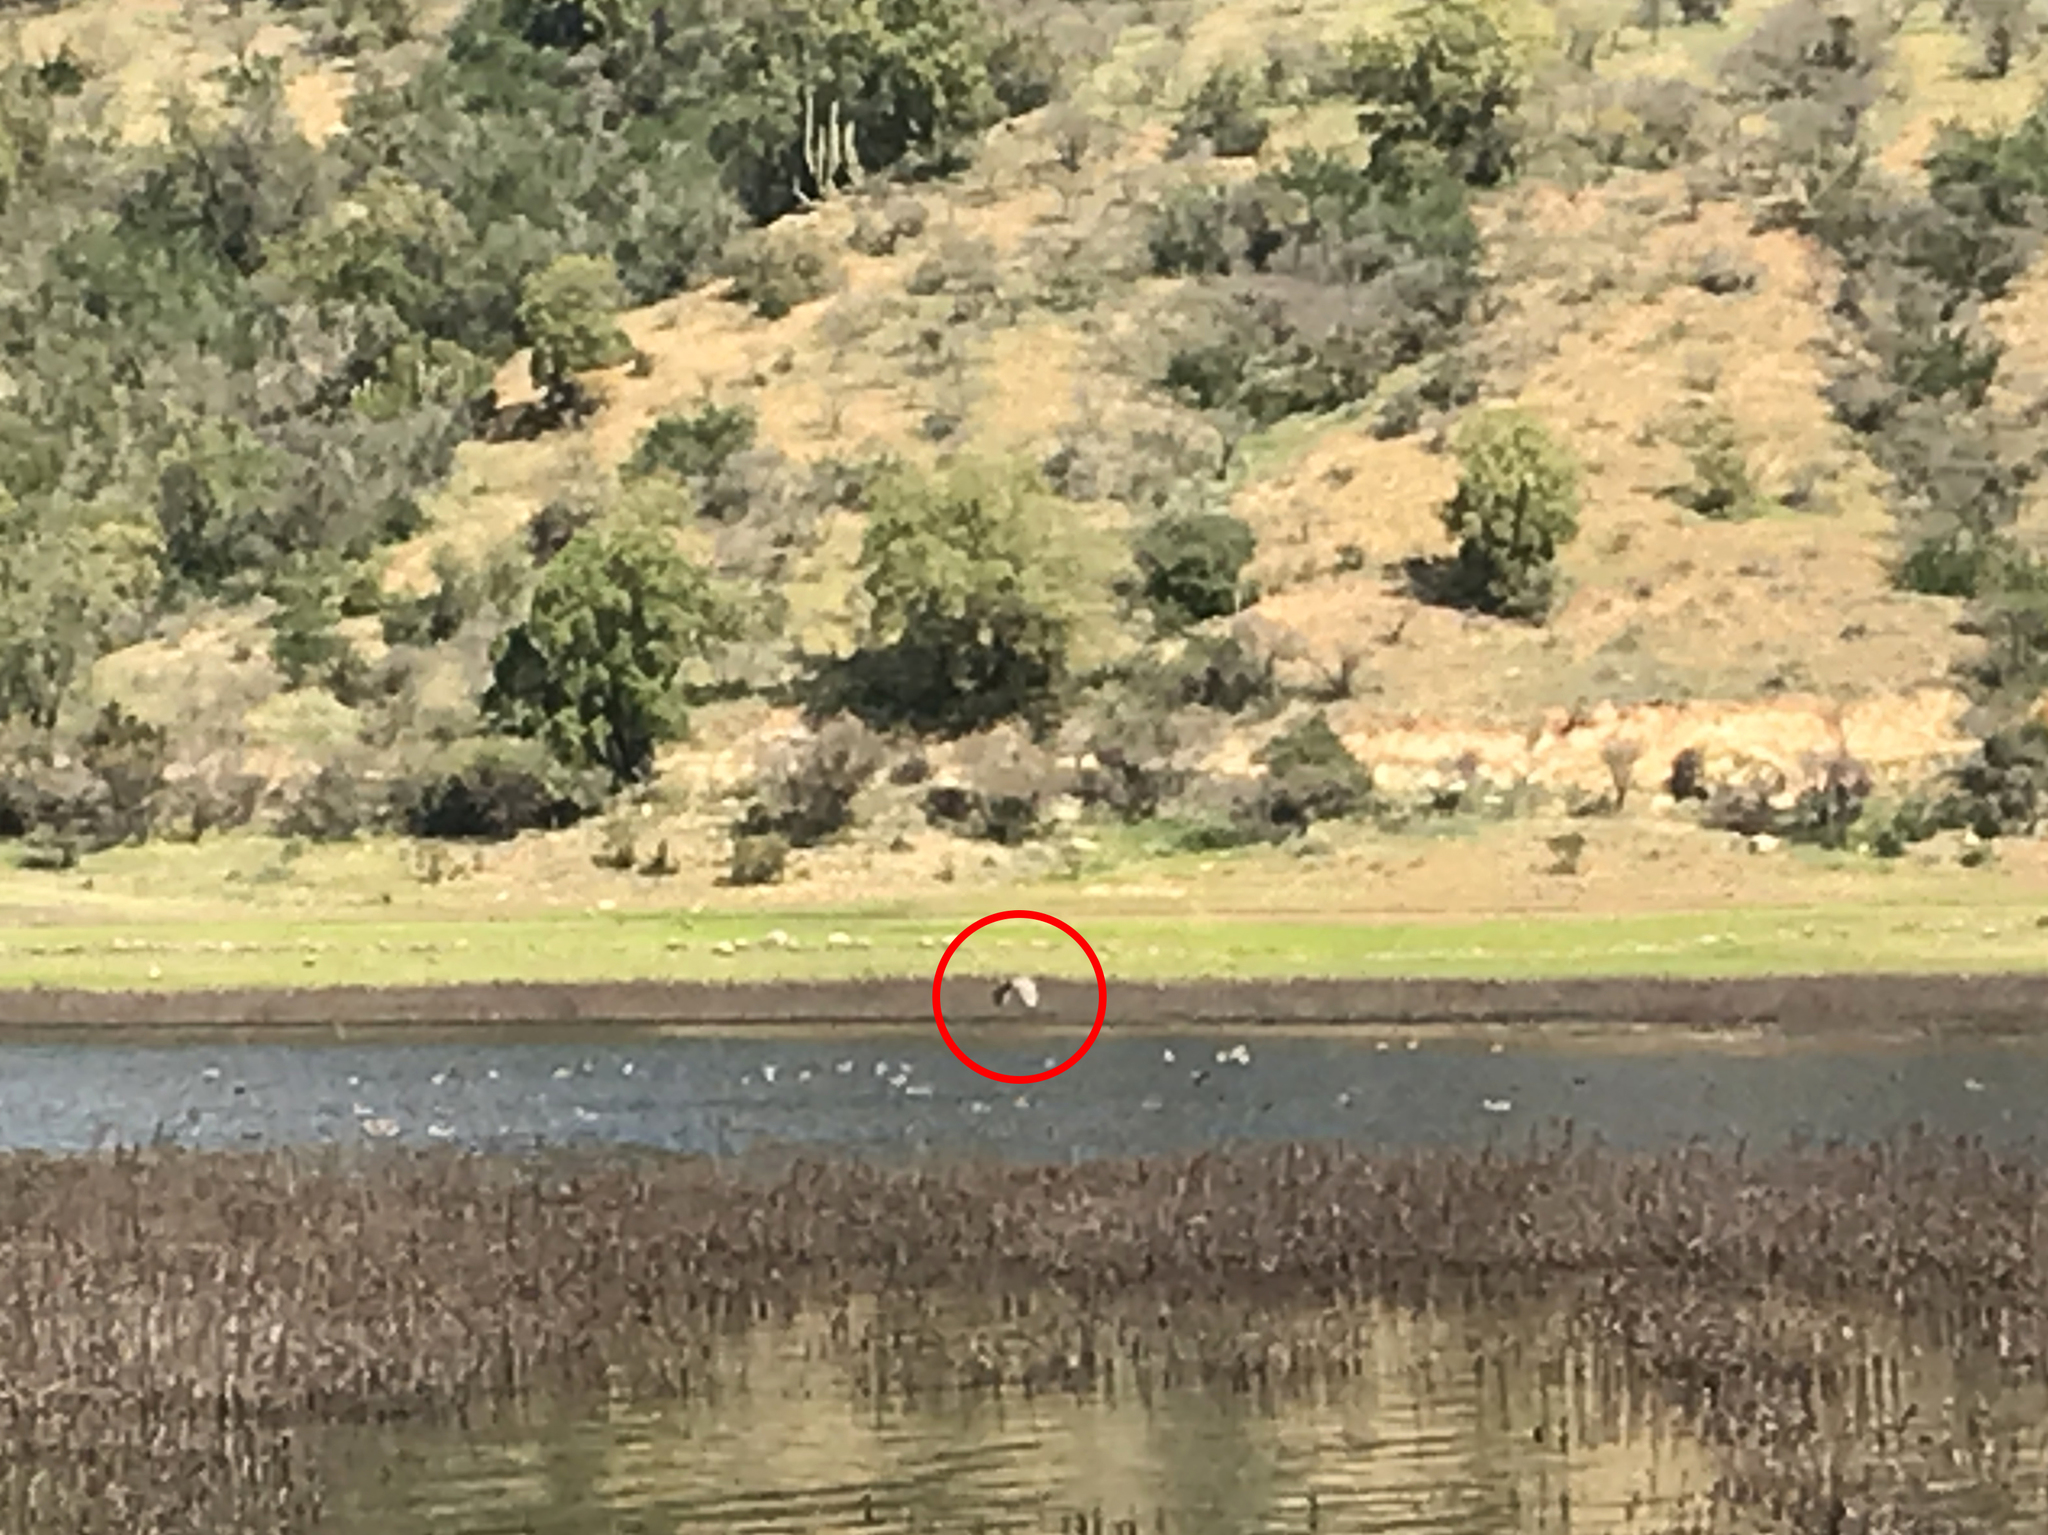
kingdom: Animalia
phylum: Chordata
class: Aves
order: Pelecaniformes
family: Ardeidae
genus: Nycticorax
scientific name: Nycticorax nycticorax
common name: Black-crowned night heron
